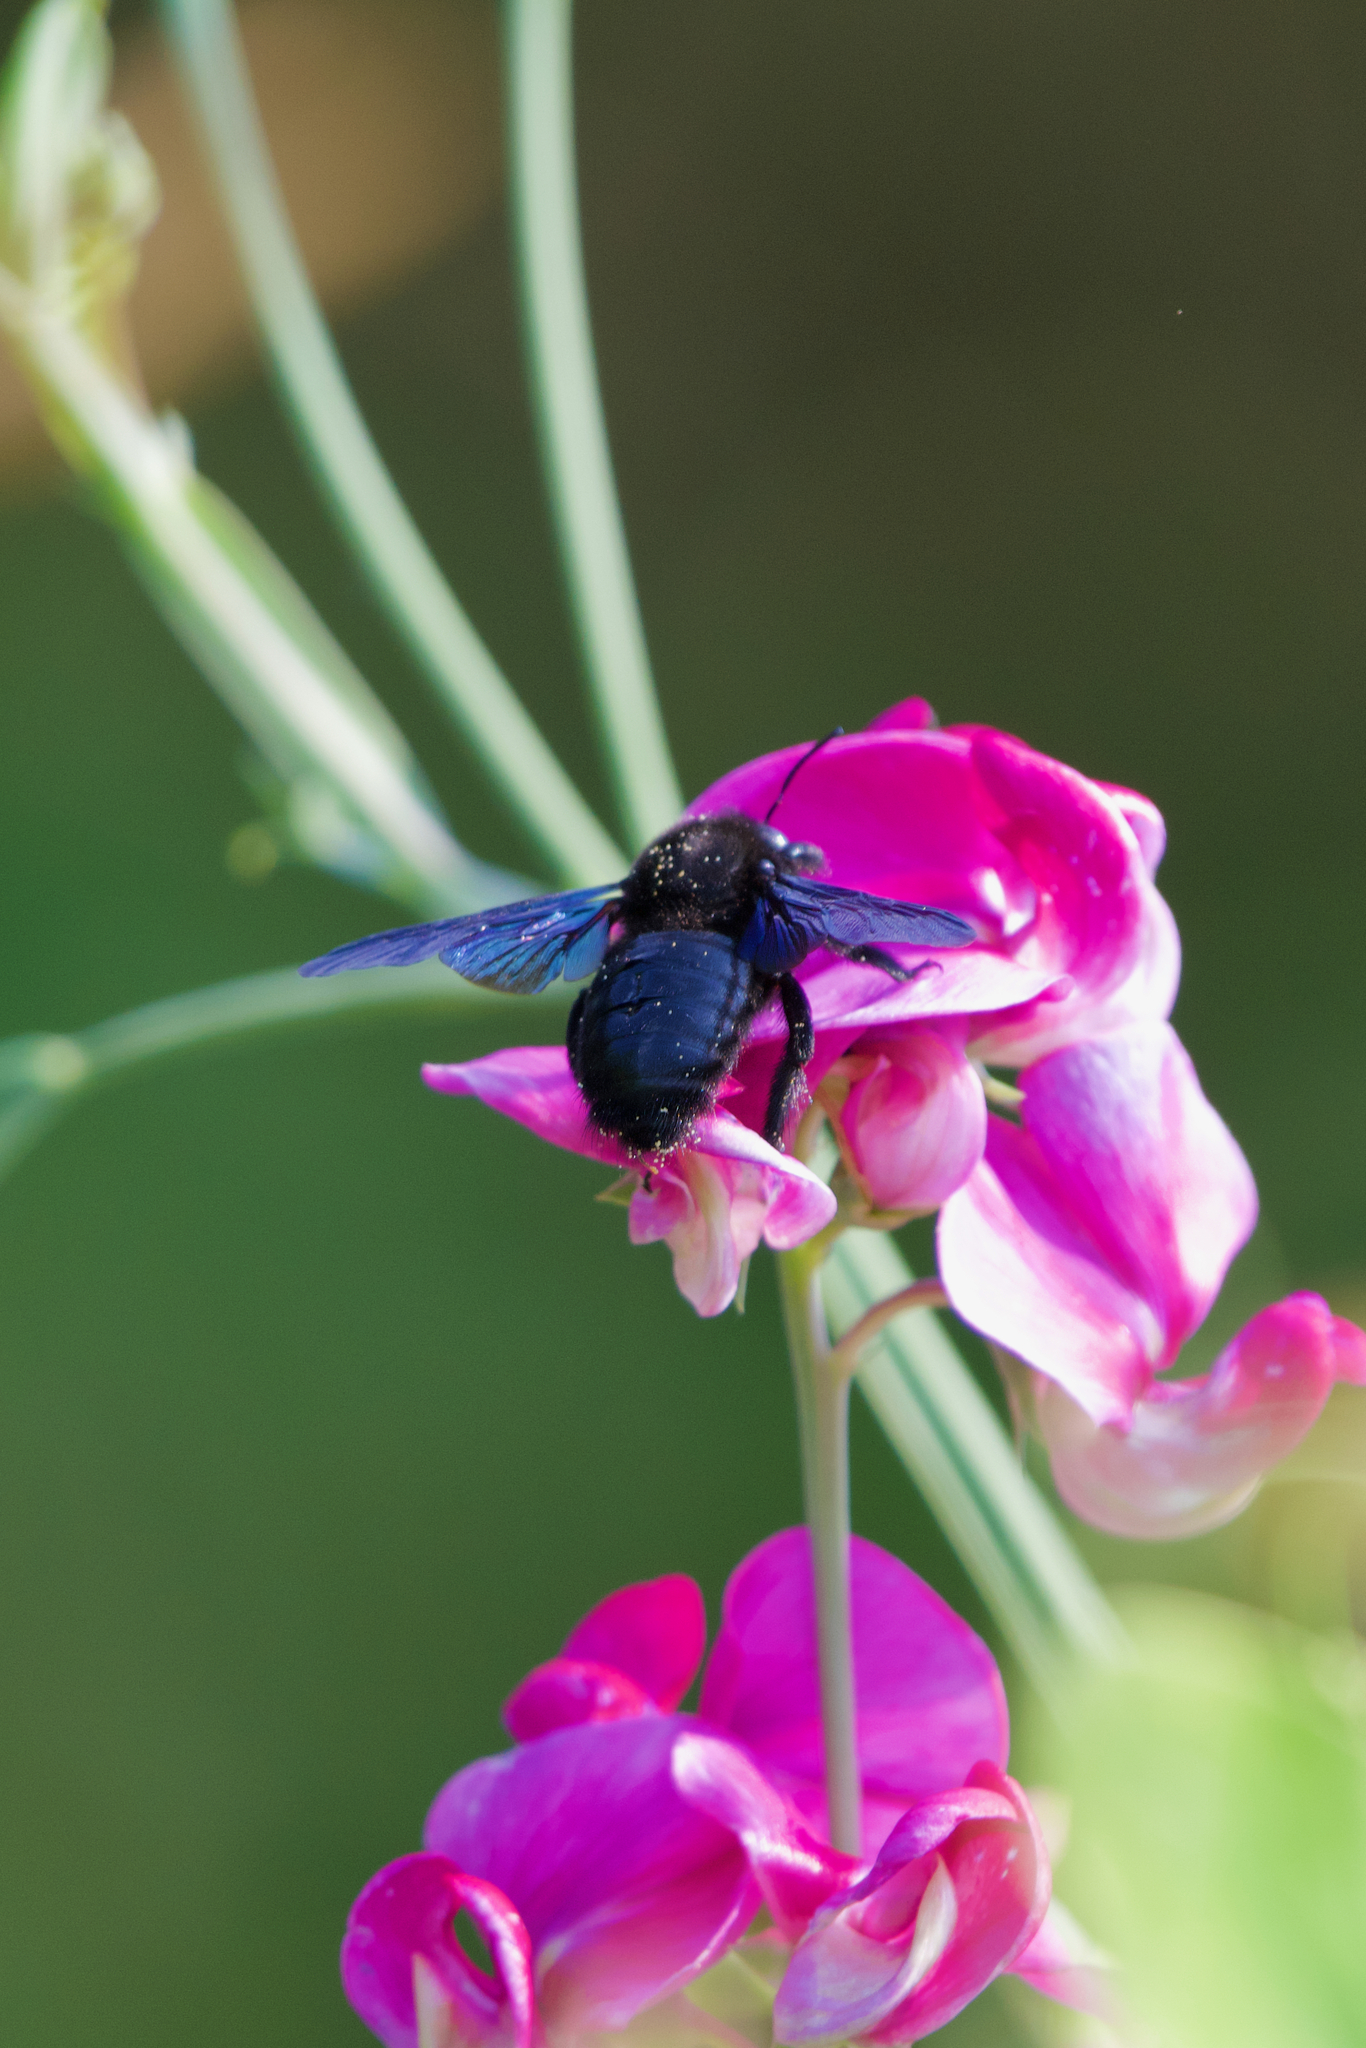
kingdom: Animalia
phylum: Arthropoda
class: Insecta
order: Hymenoptera
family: Apidae
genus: Xylocopa
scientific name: Xylocopa valga
